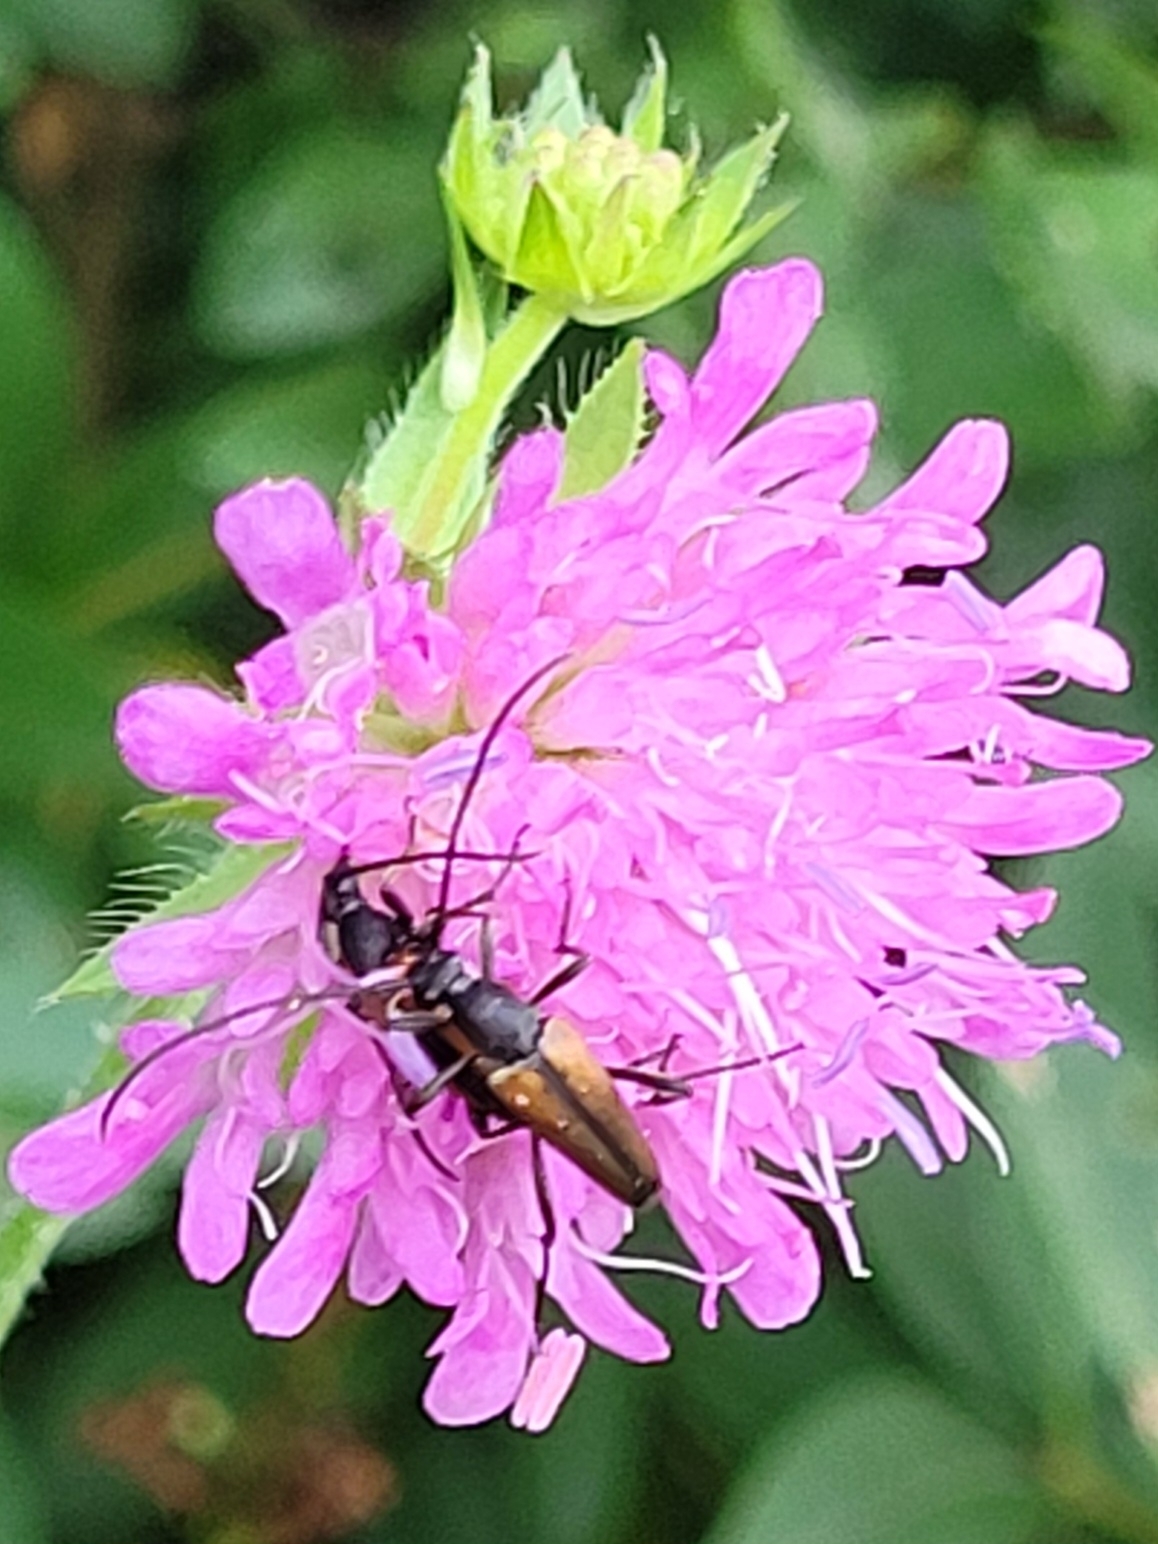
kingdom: Animalia
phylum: Arthropoda
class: Insecta
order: Coleoptera
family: Cerambycidae
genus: Stenurella
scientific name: Stenurella melanura
